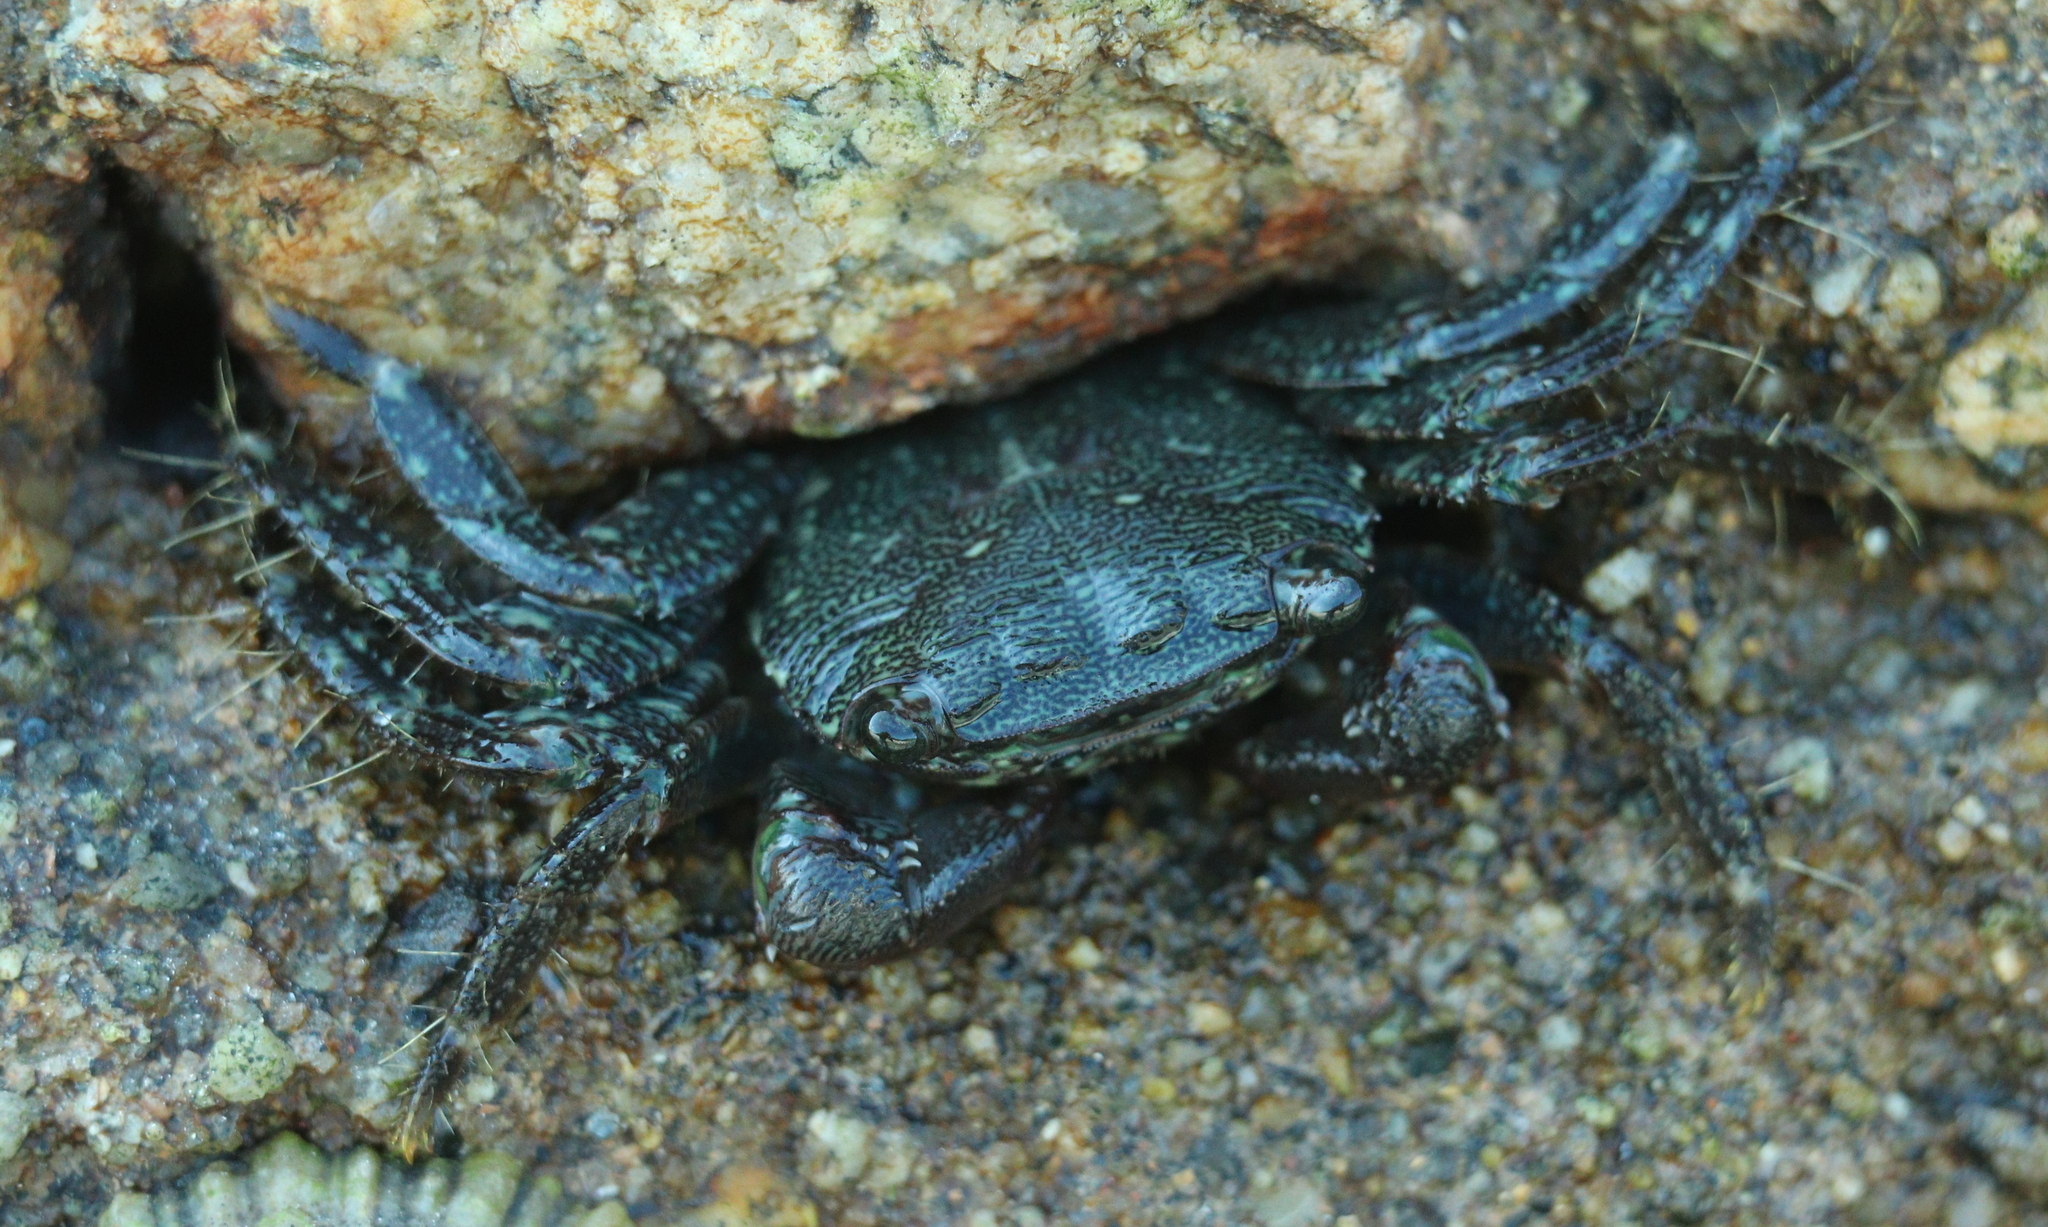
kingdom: Animalia
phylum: Arthropoda
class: Malacostraca
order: Decapoda
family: Grapsidae
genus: Pachygrapsus
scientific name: Pachygrapsus marmoratus
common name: Marbled rock crab
